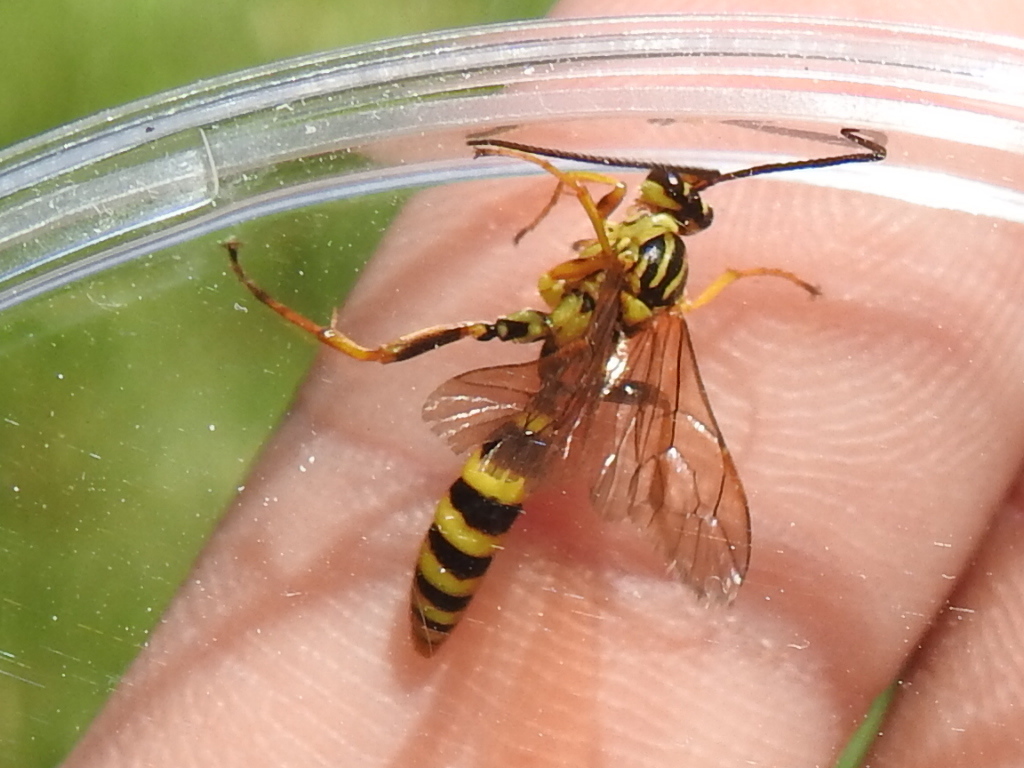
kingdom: Animalia
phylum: Arthropoda
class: Insecta
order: Hymenoptera
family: Ichneumonidae
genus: Setanta
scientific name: Setanta parsimonica
